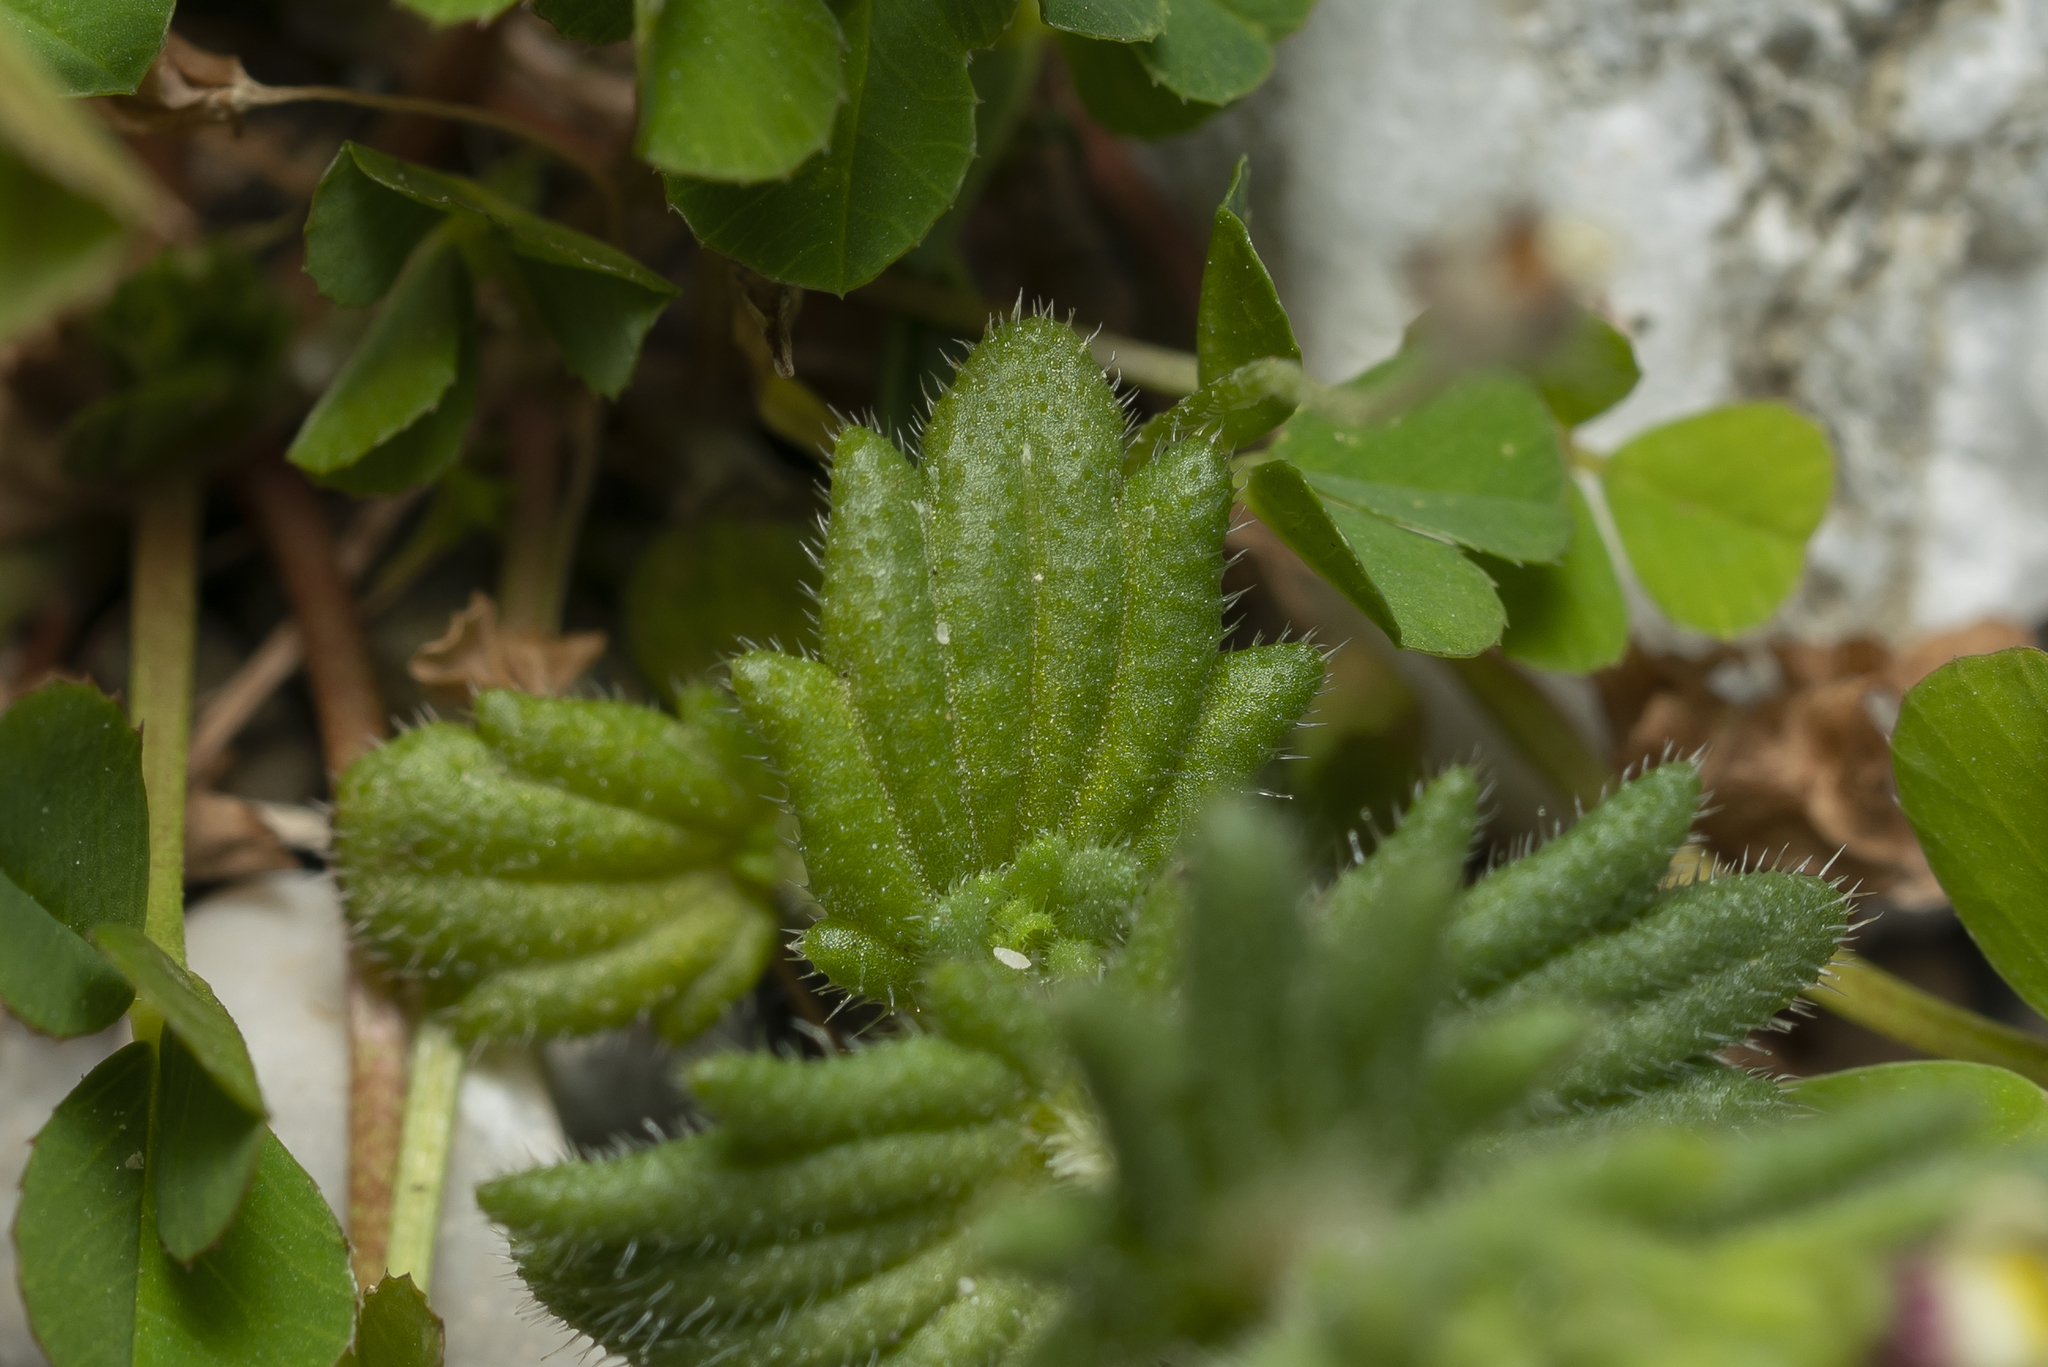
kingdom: Plantae
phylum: Tracheophyta
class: Magnoliopsida
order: Lamiales
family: Orobanchaceae
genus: Parentucellia
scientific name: Parentucellia latifolia
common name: Broadleaf glandweed
